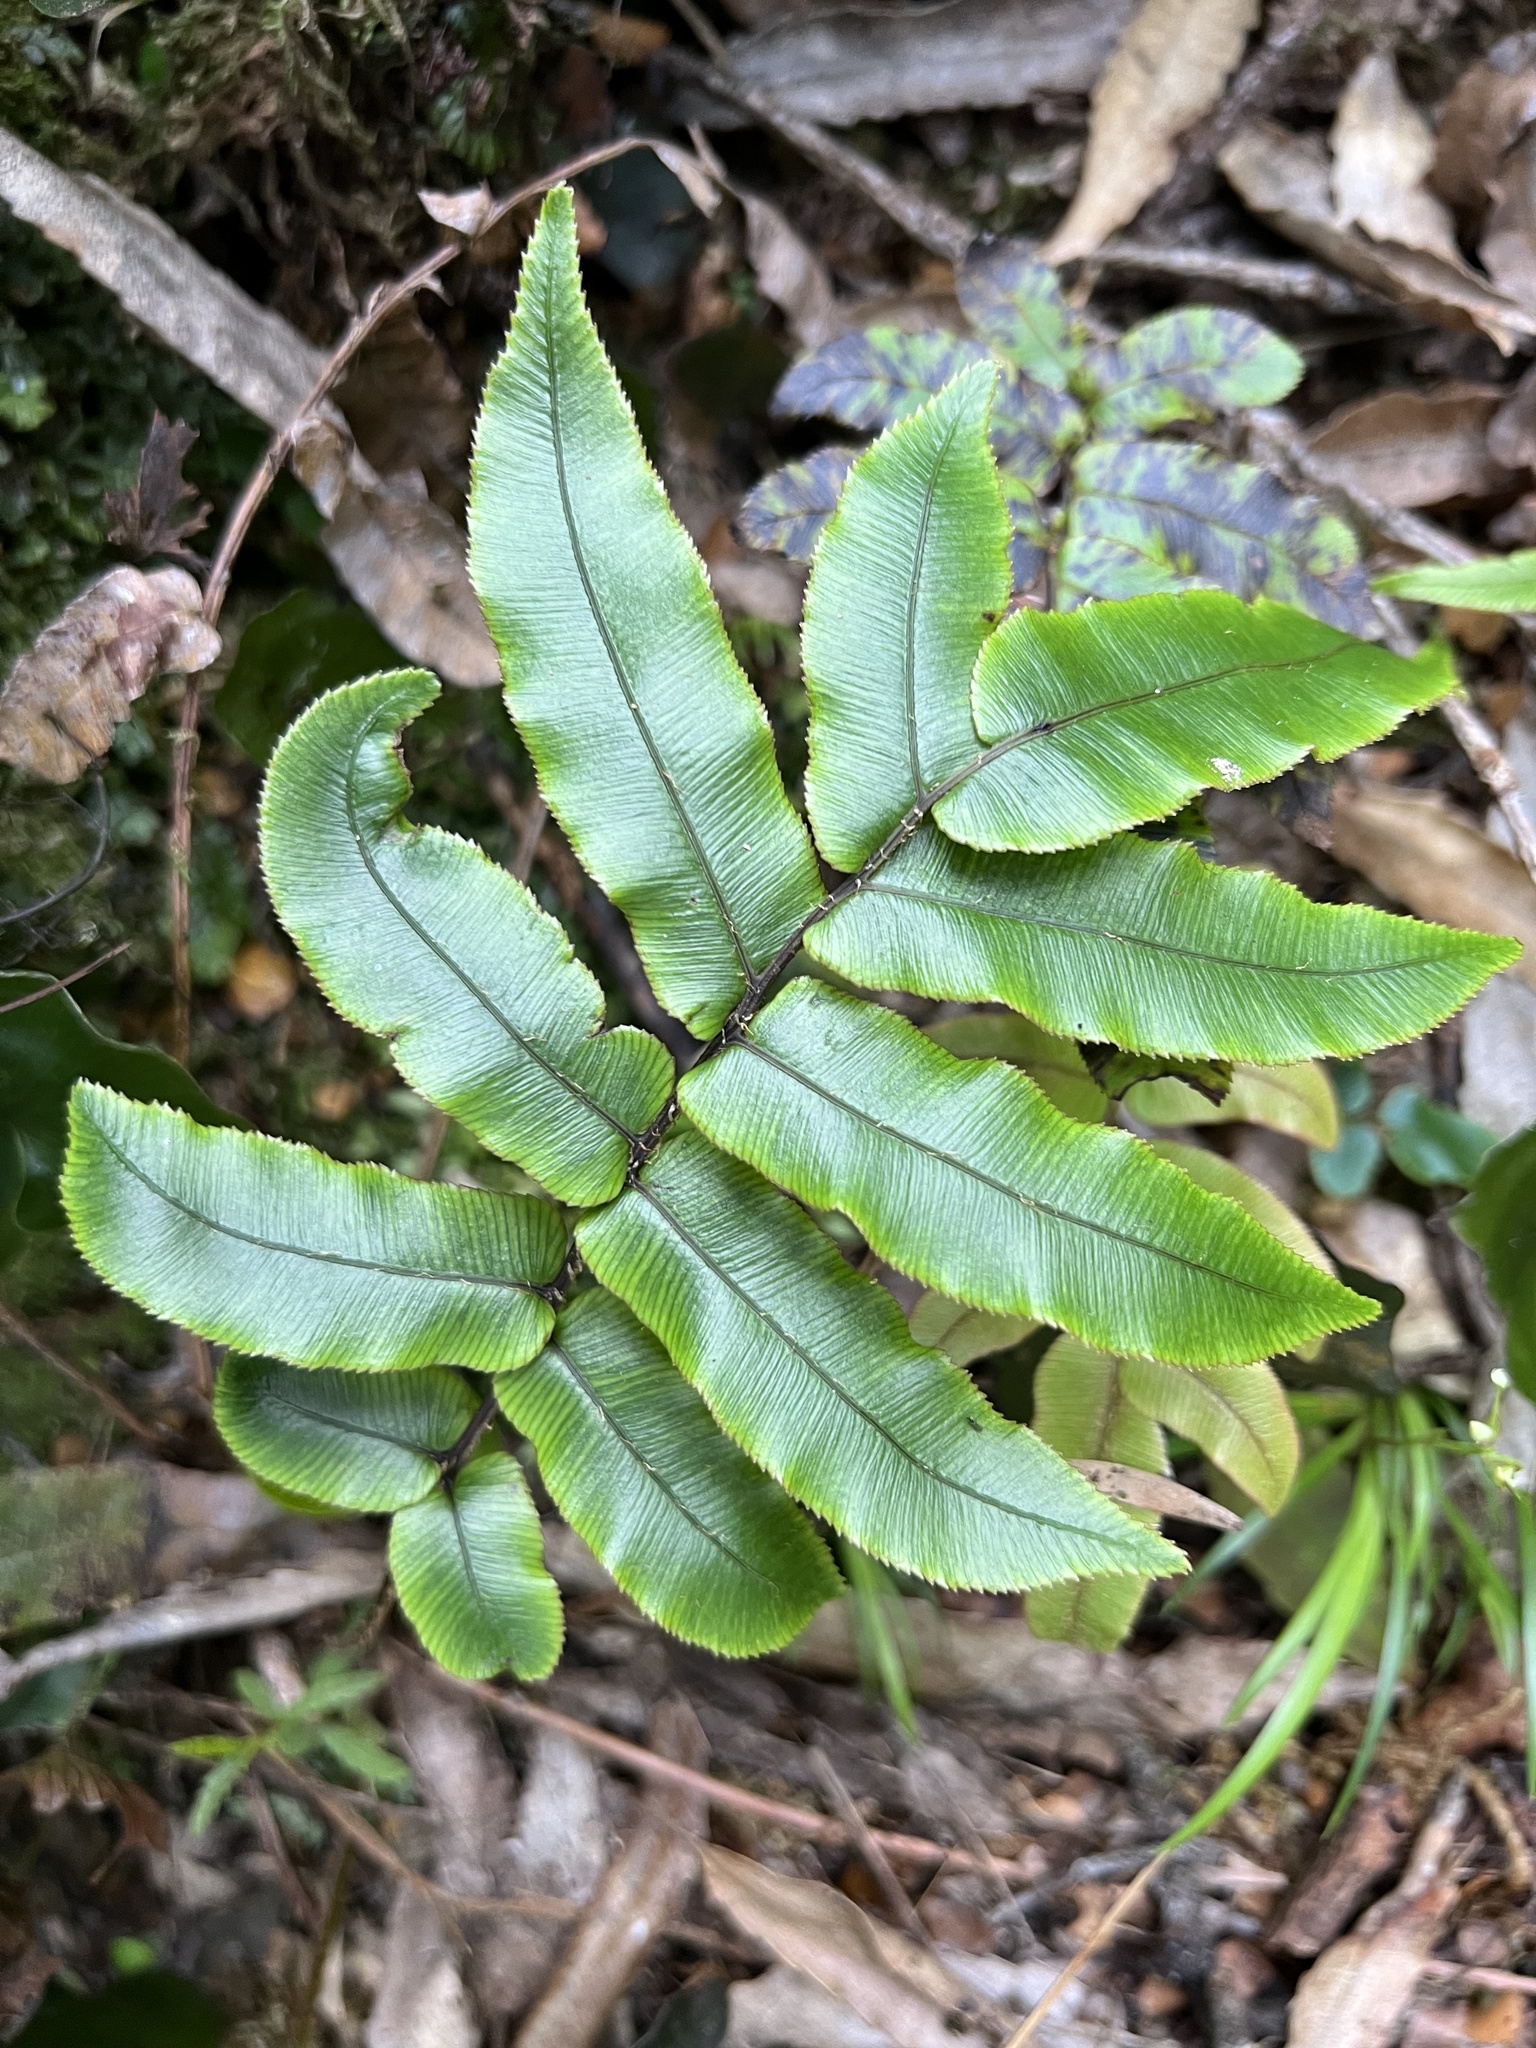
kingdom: Plantae
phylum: Tracheophyta
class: Polypodiopsida
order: Polypodiales
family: Blechnaceae
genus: Parablechnum
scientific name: Parablechnum procerum
